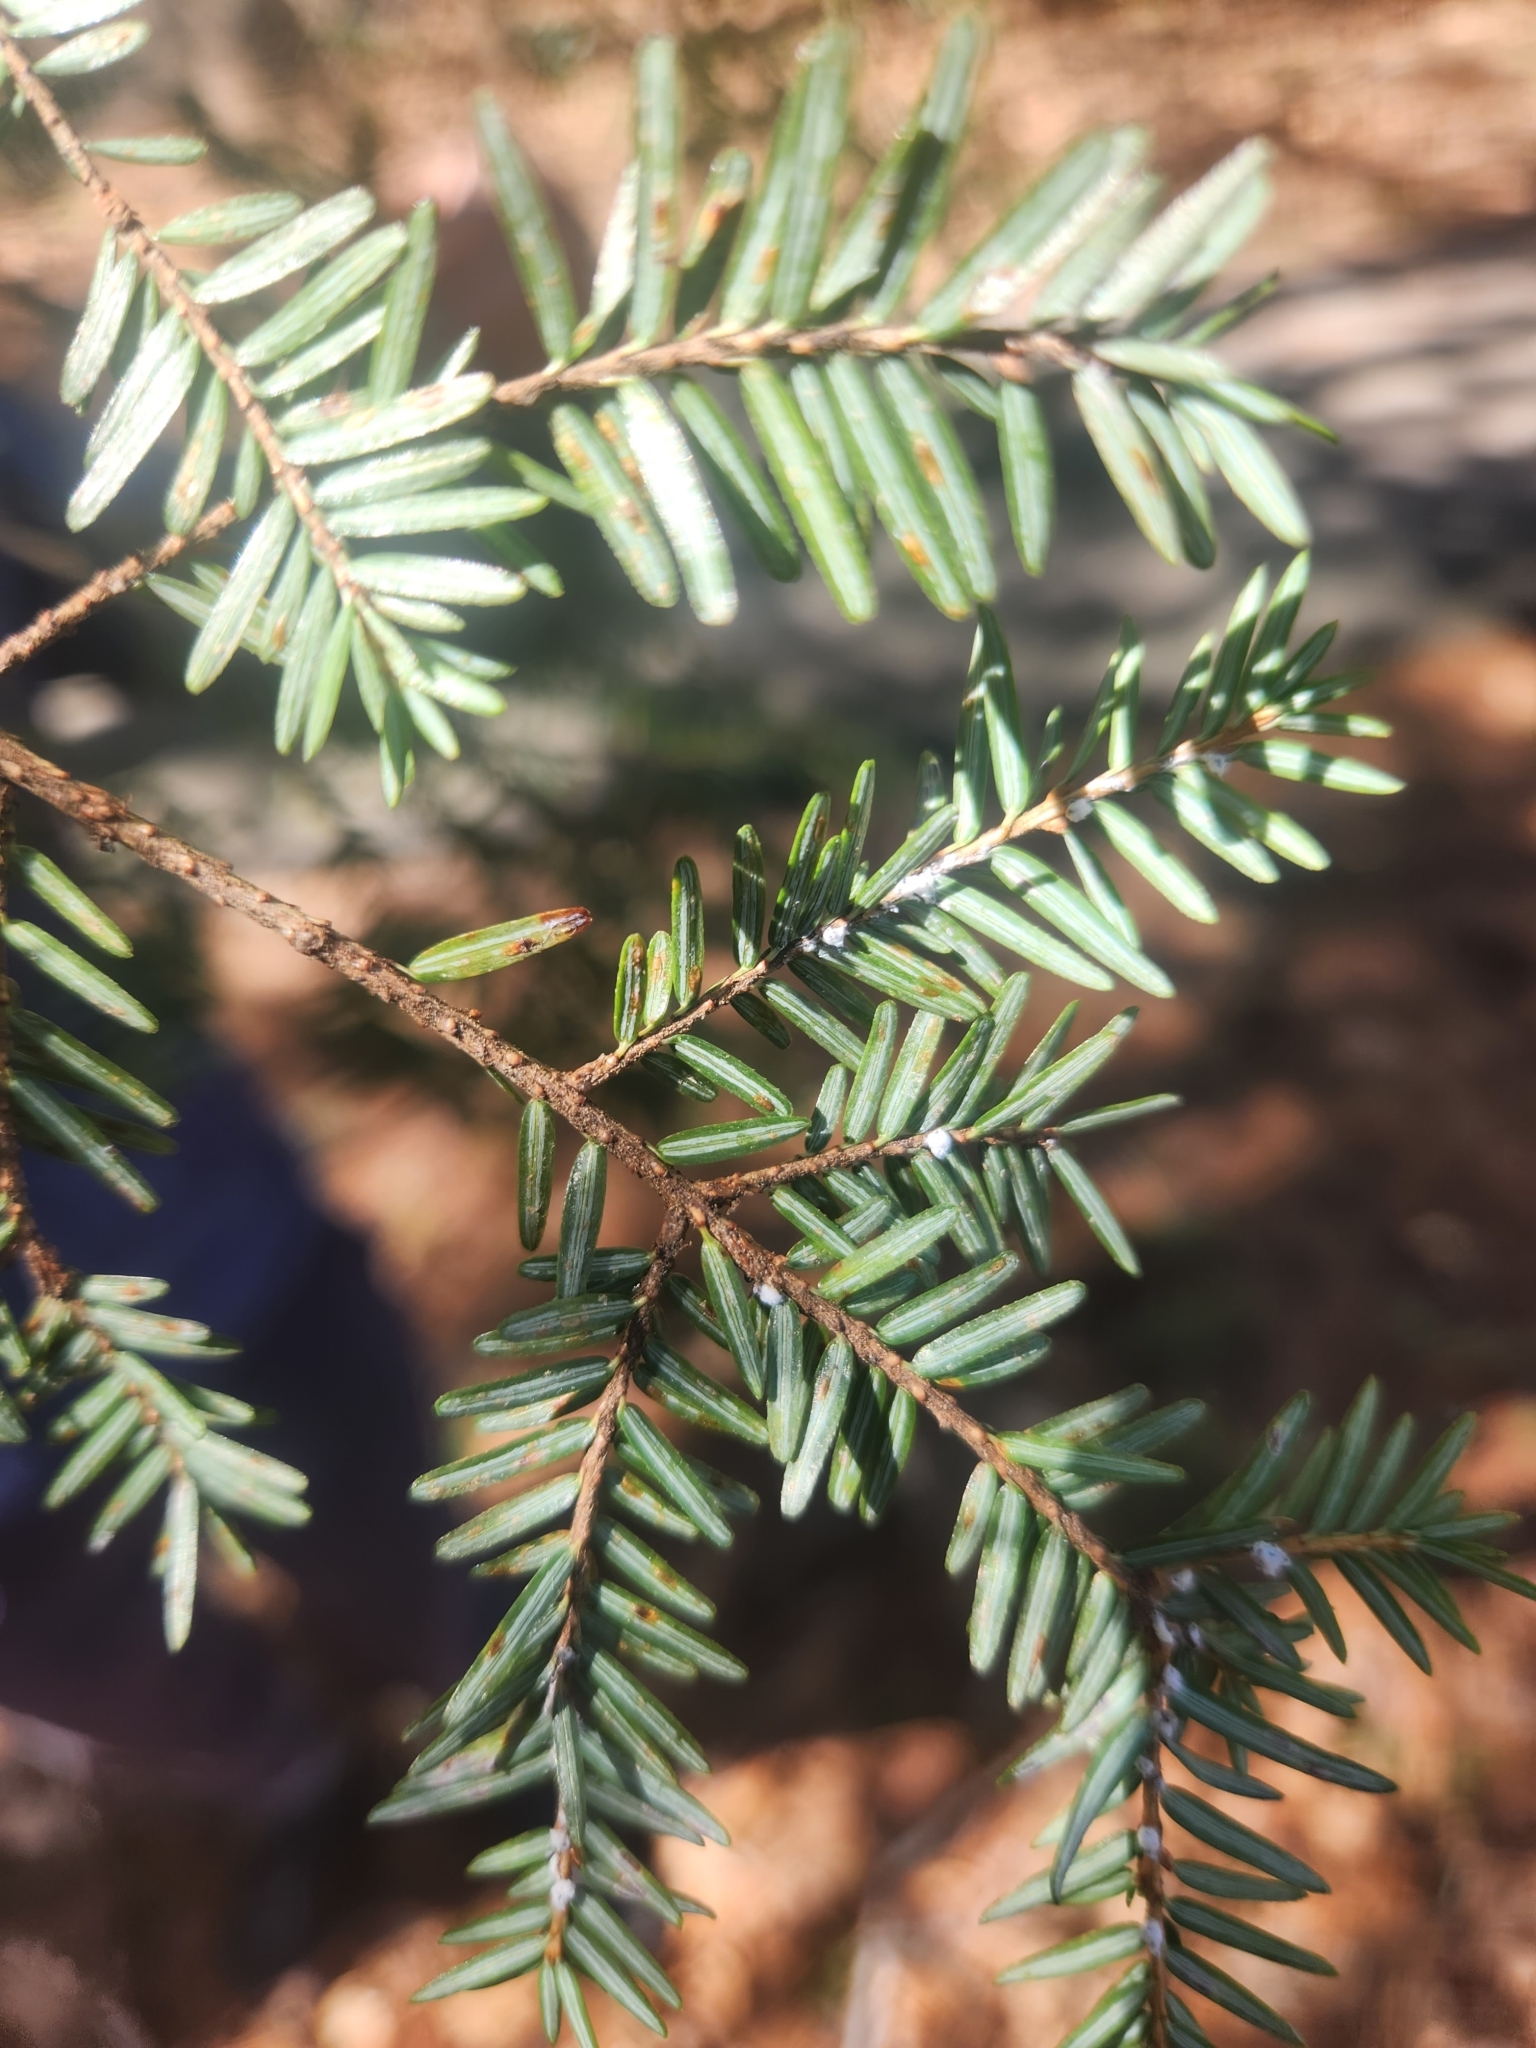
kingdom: Animalia
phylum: Arthropoda
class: Insecta
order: Hemiptera
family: Adelgidae
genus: Adelges
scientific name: Adelges tsugae
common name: Hemlock woolly adelgid
